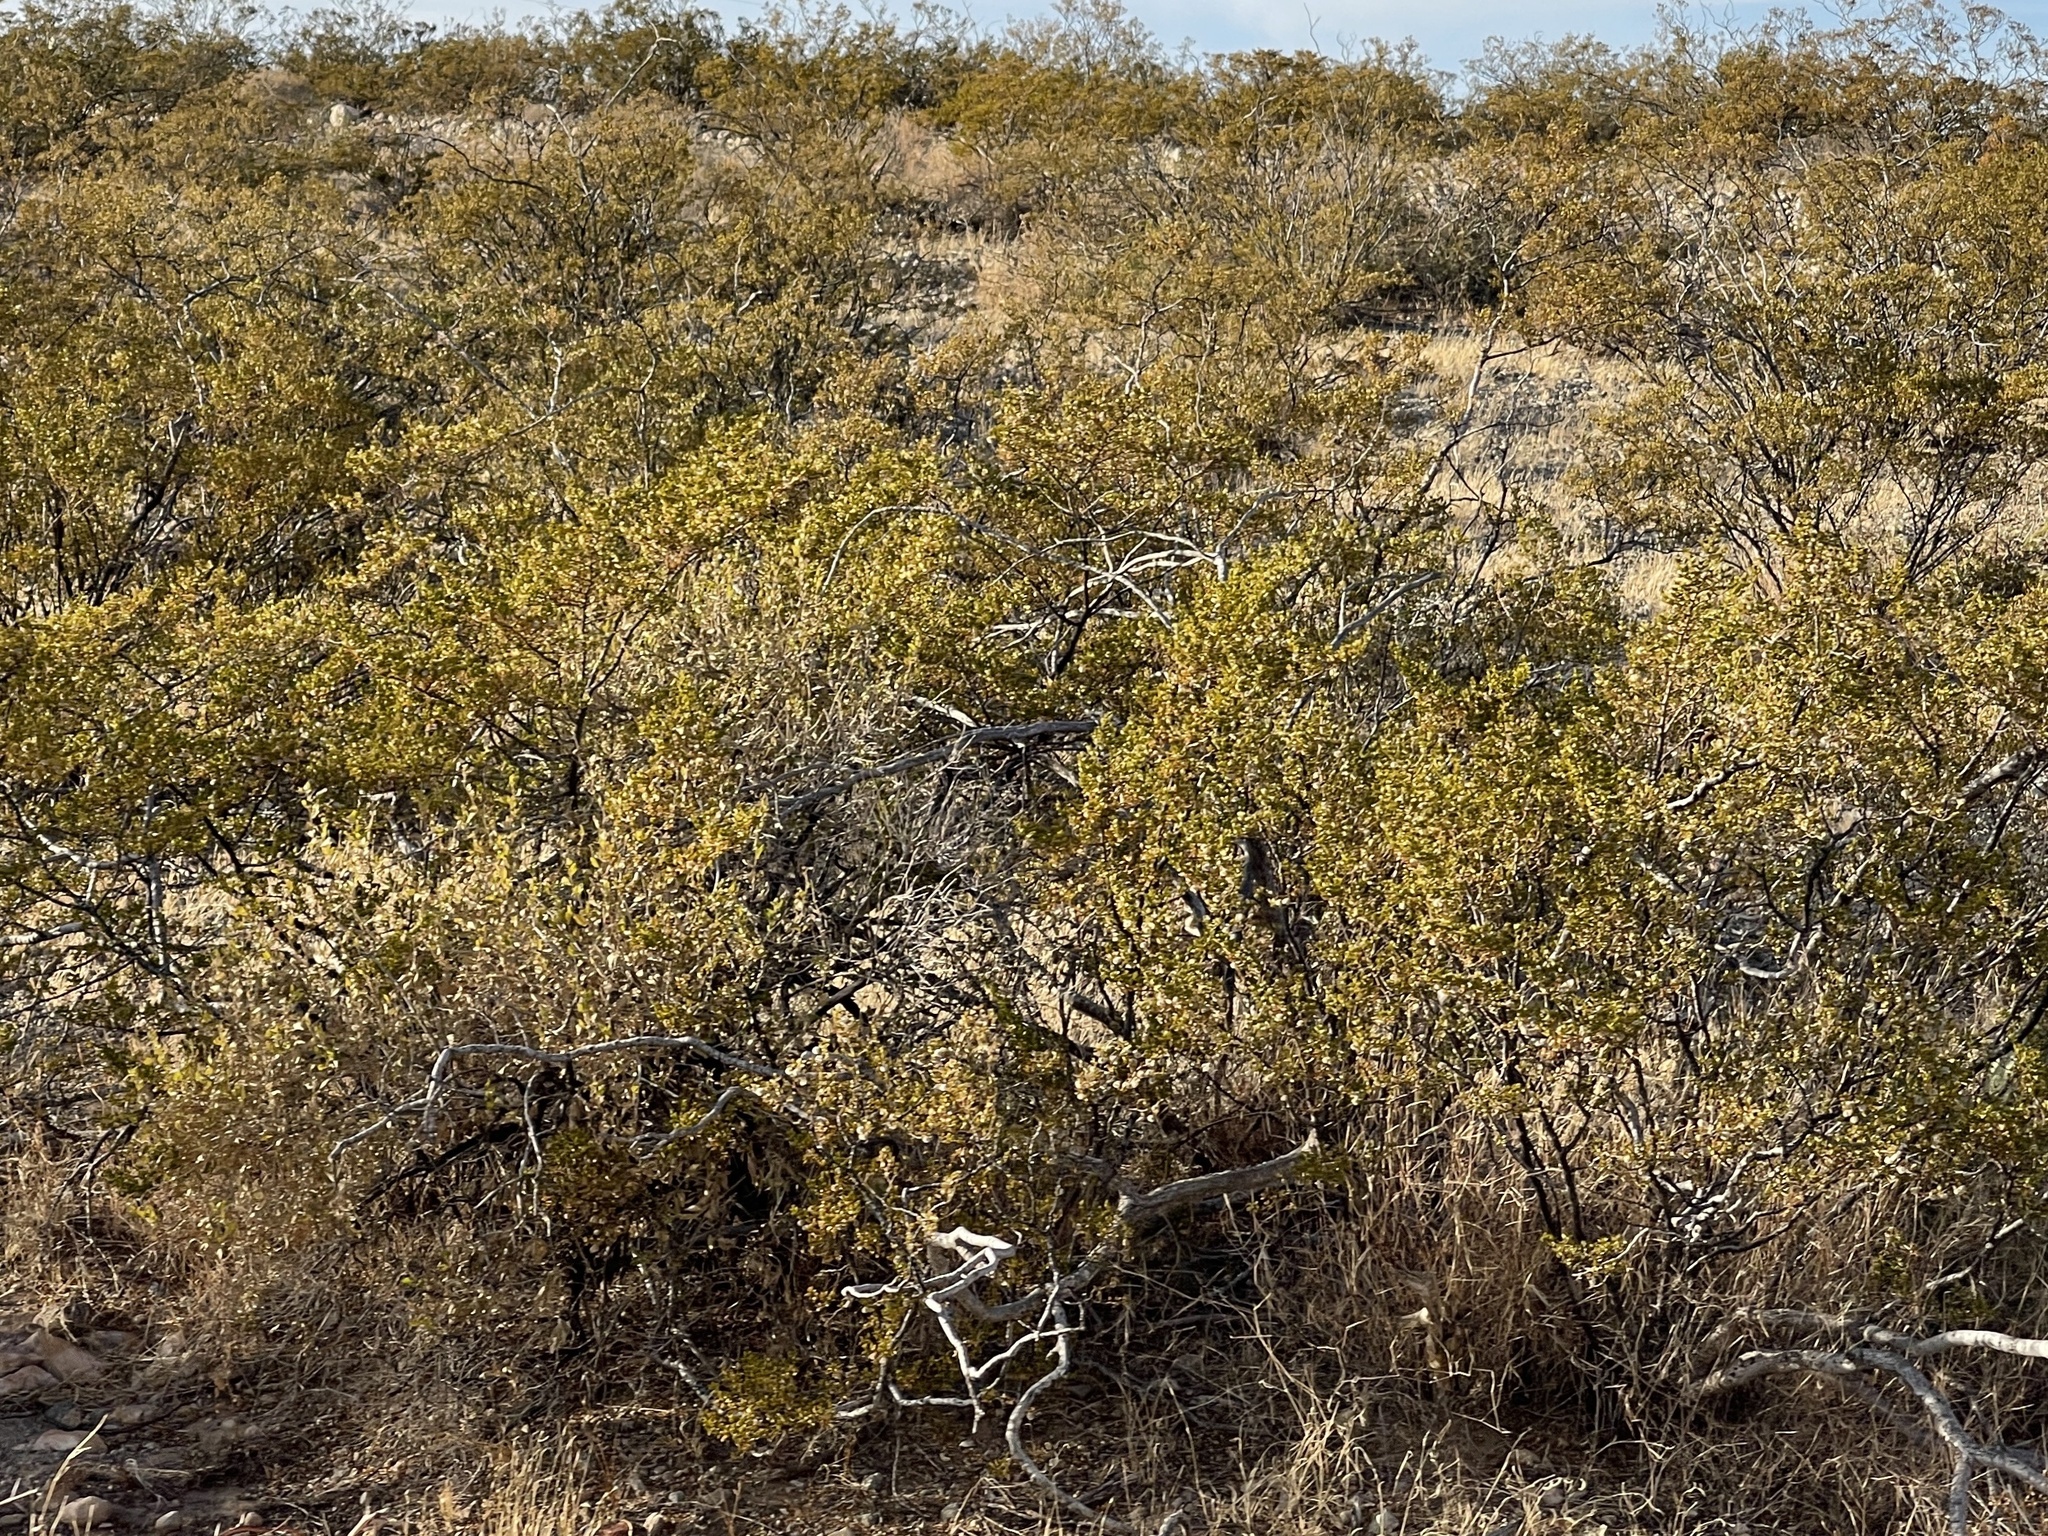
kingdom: Plantae
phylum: Tracheophyta
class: Magnoliopsida
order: Zygophyllales
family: Zygophyllaceae
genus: Larrea
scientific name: Larrea tridentata
